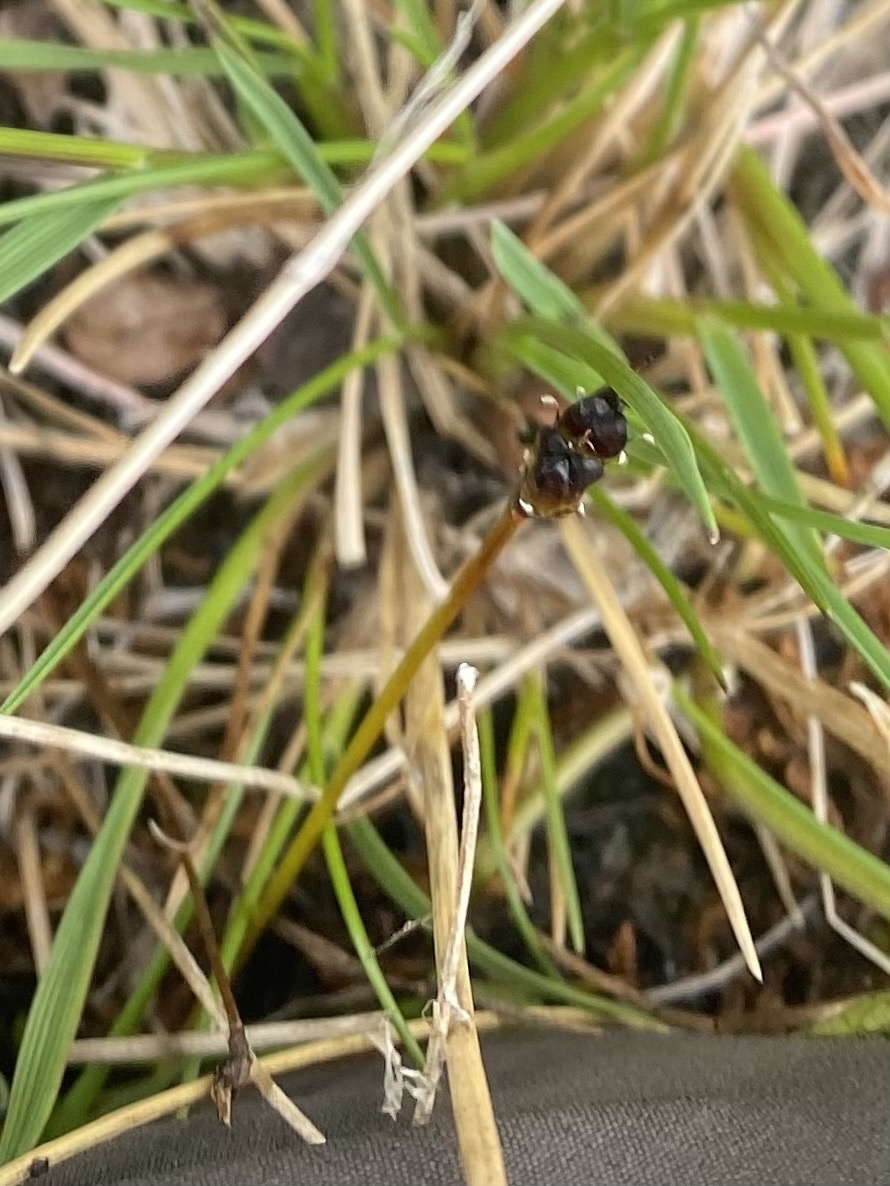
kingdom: Plantae
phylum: Tracheophyta
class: Liliopsida
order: Poales
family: Juncaceae
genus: Luzula
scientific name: Luzula
